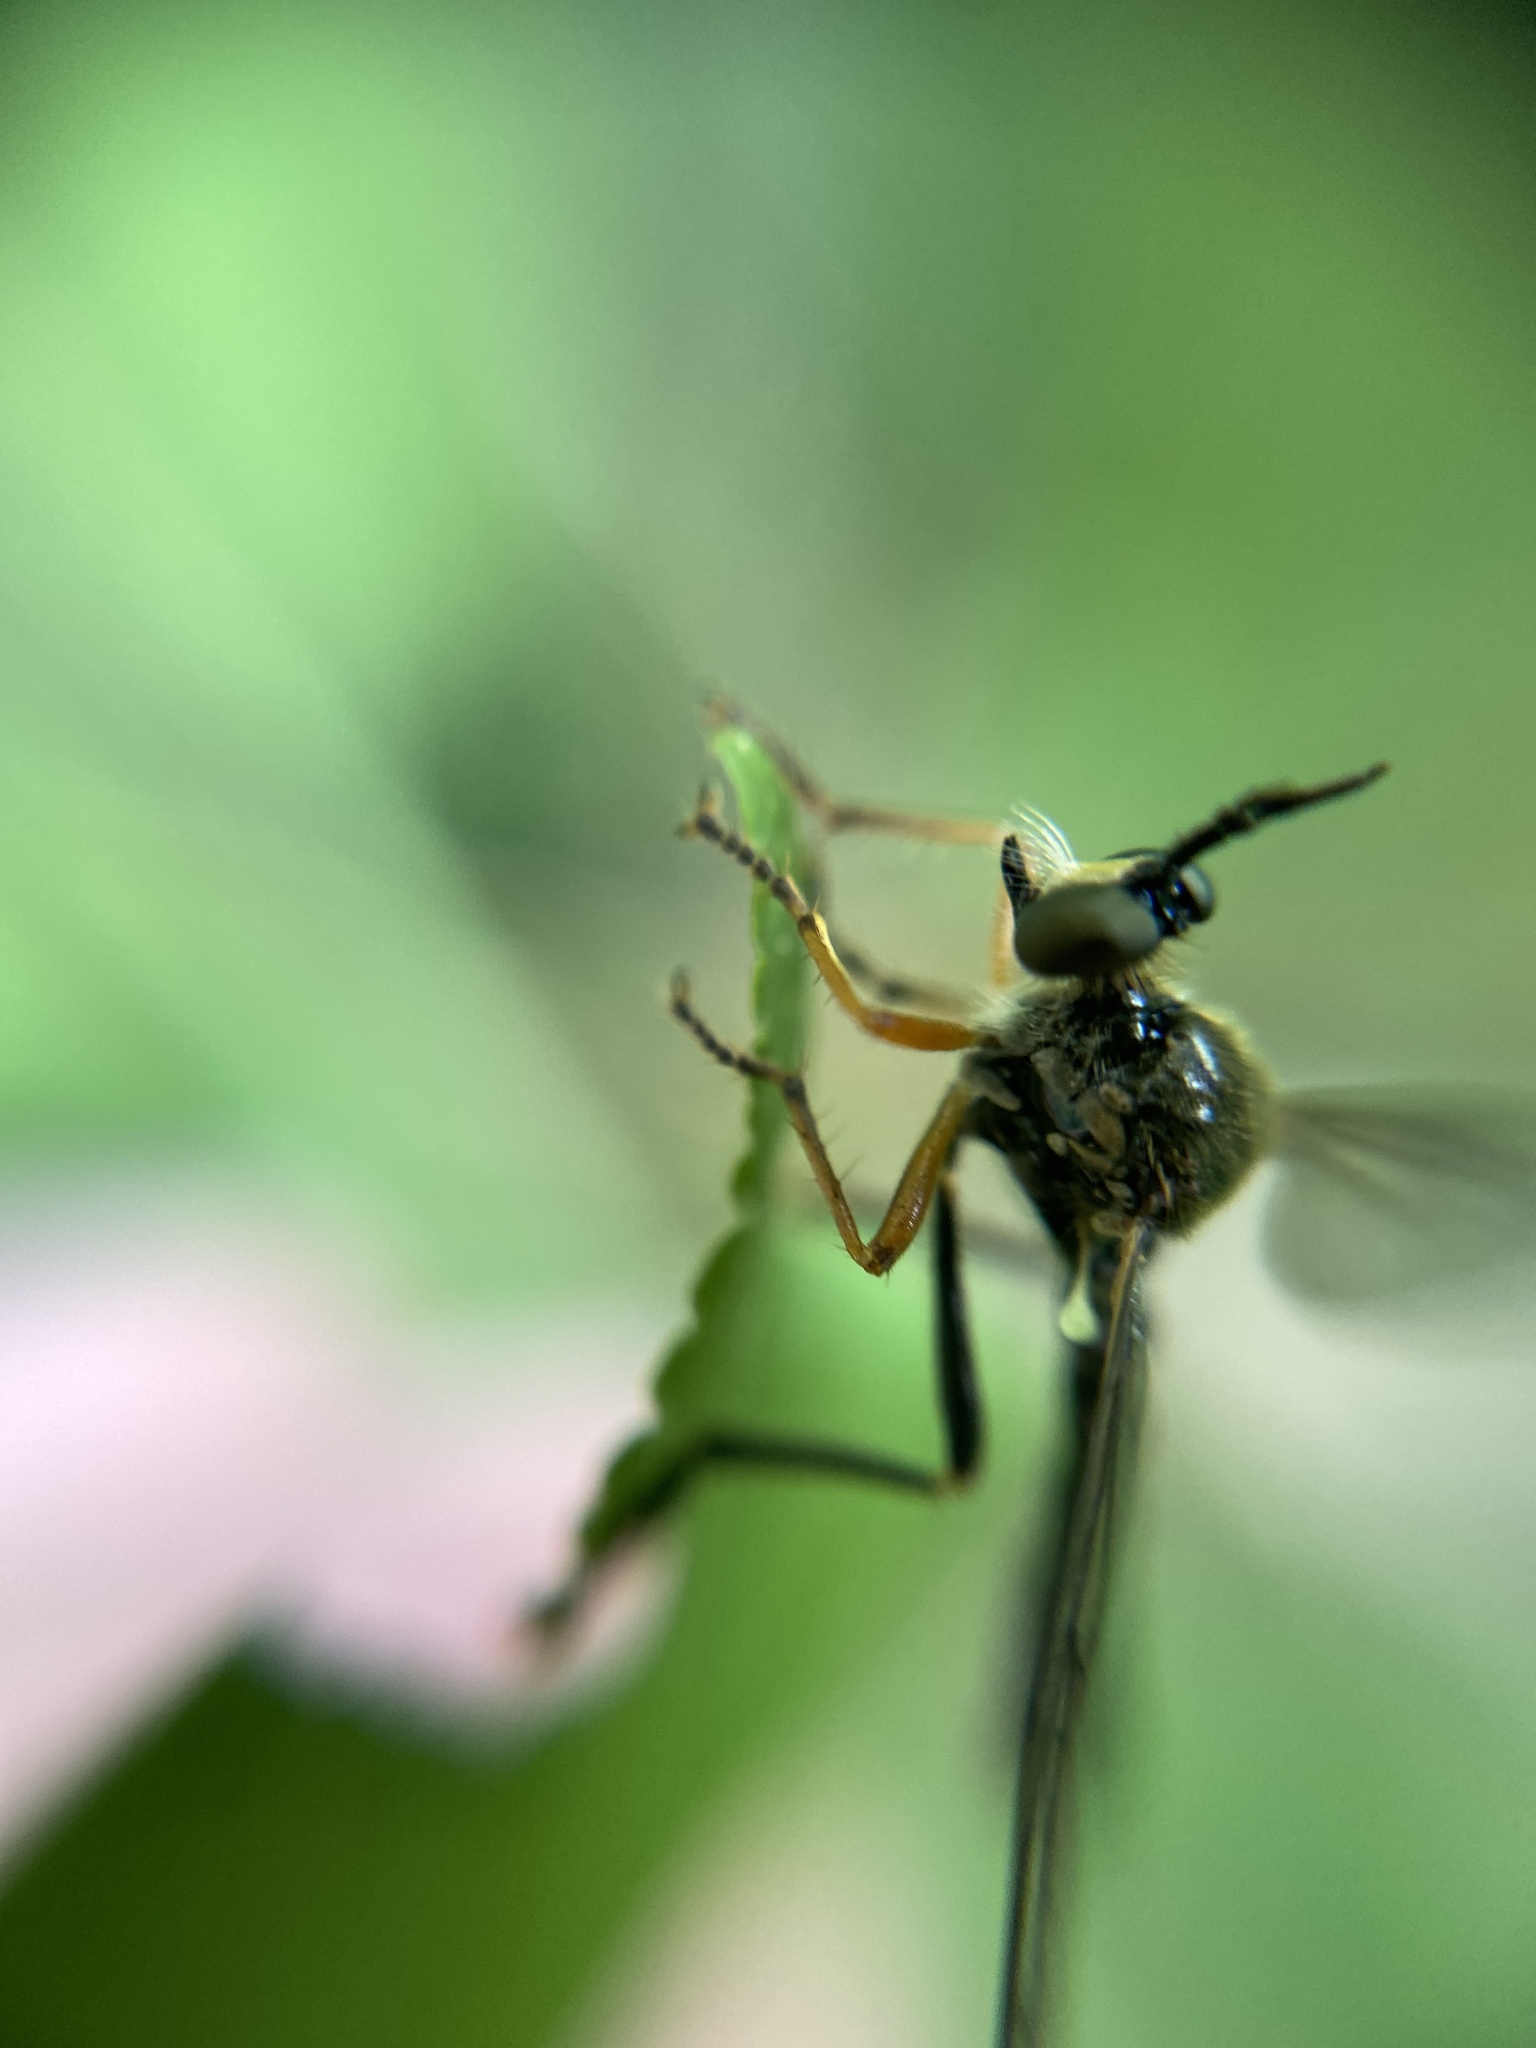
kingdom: Animalia
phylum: Arthropoda
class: Insecta
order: Diptera
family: Asilidae
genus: Dioctria
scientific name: Dioctria rufipes
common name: Common red-legged robberfly
